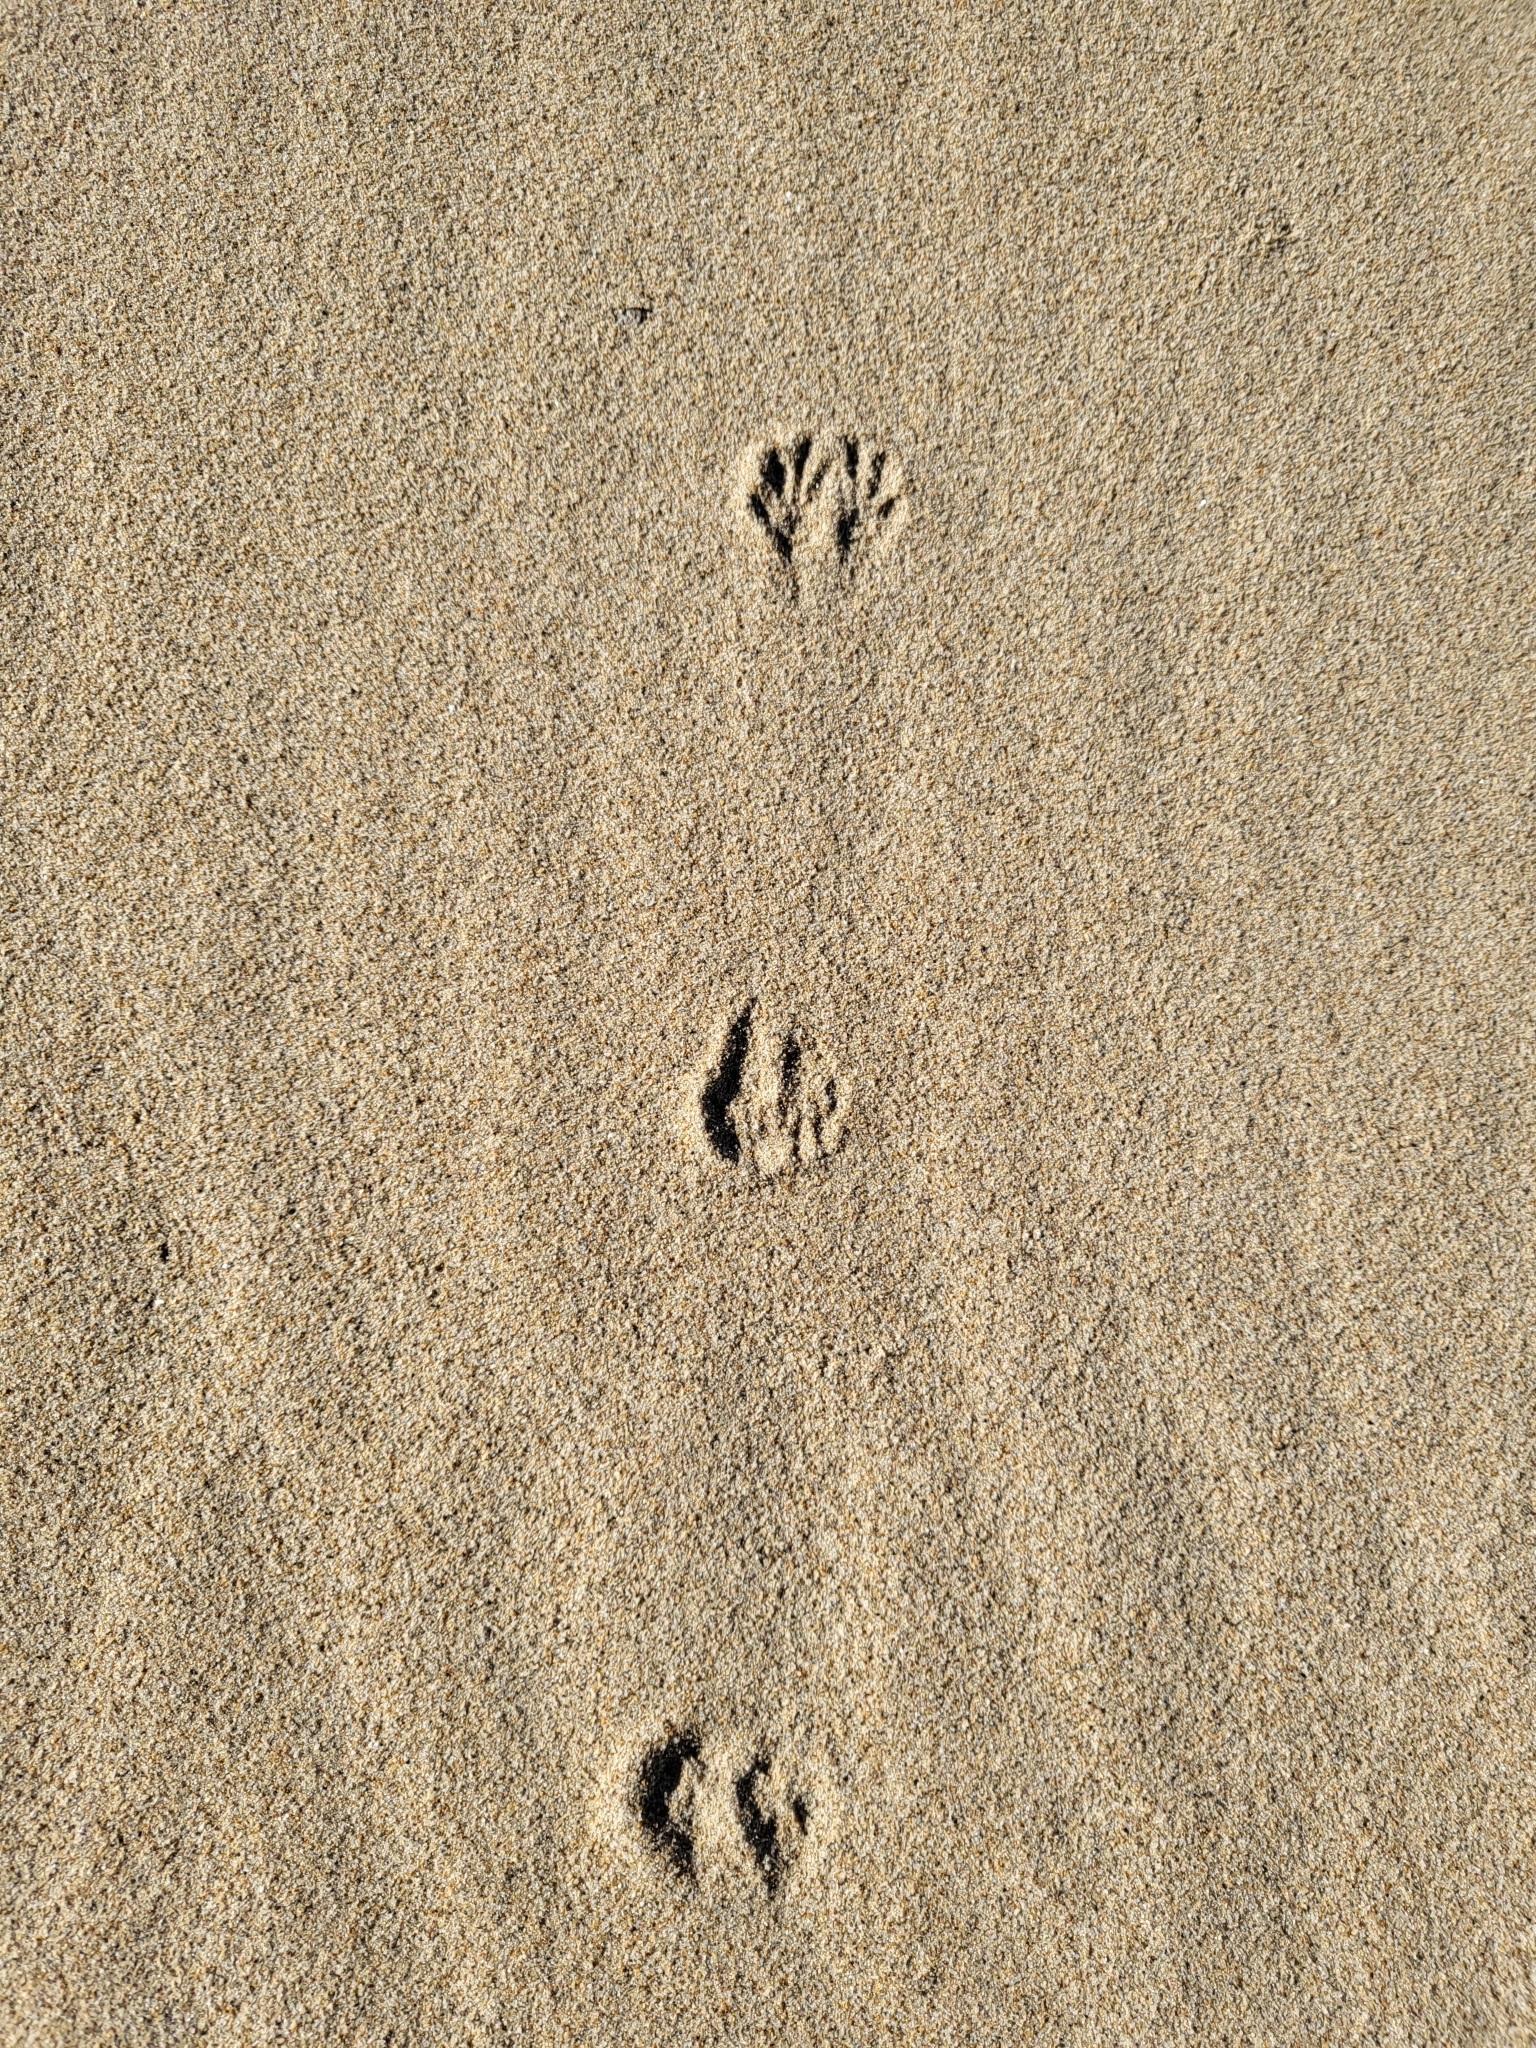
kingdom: Animalia
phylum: Chordata
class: Mammalia
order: Rodentia
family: Heteromyidae
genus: Dipodomys
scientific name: Dipodomys heermanni
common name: Heermann's kangaroo rat
